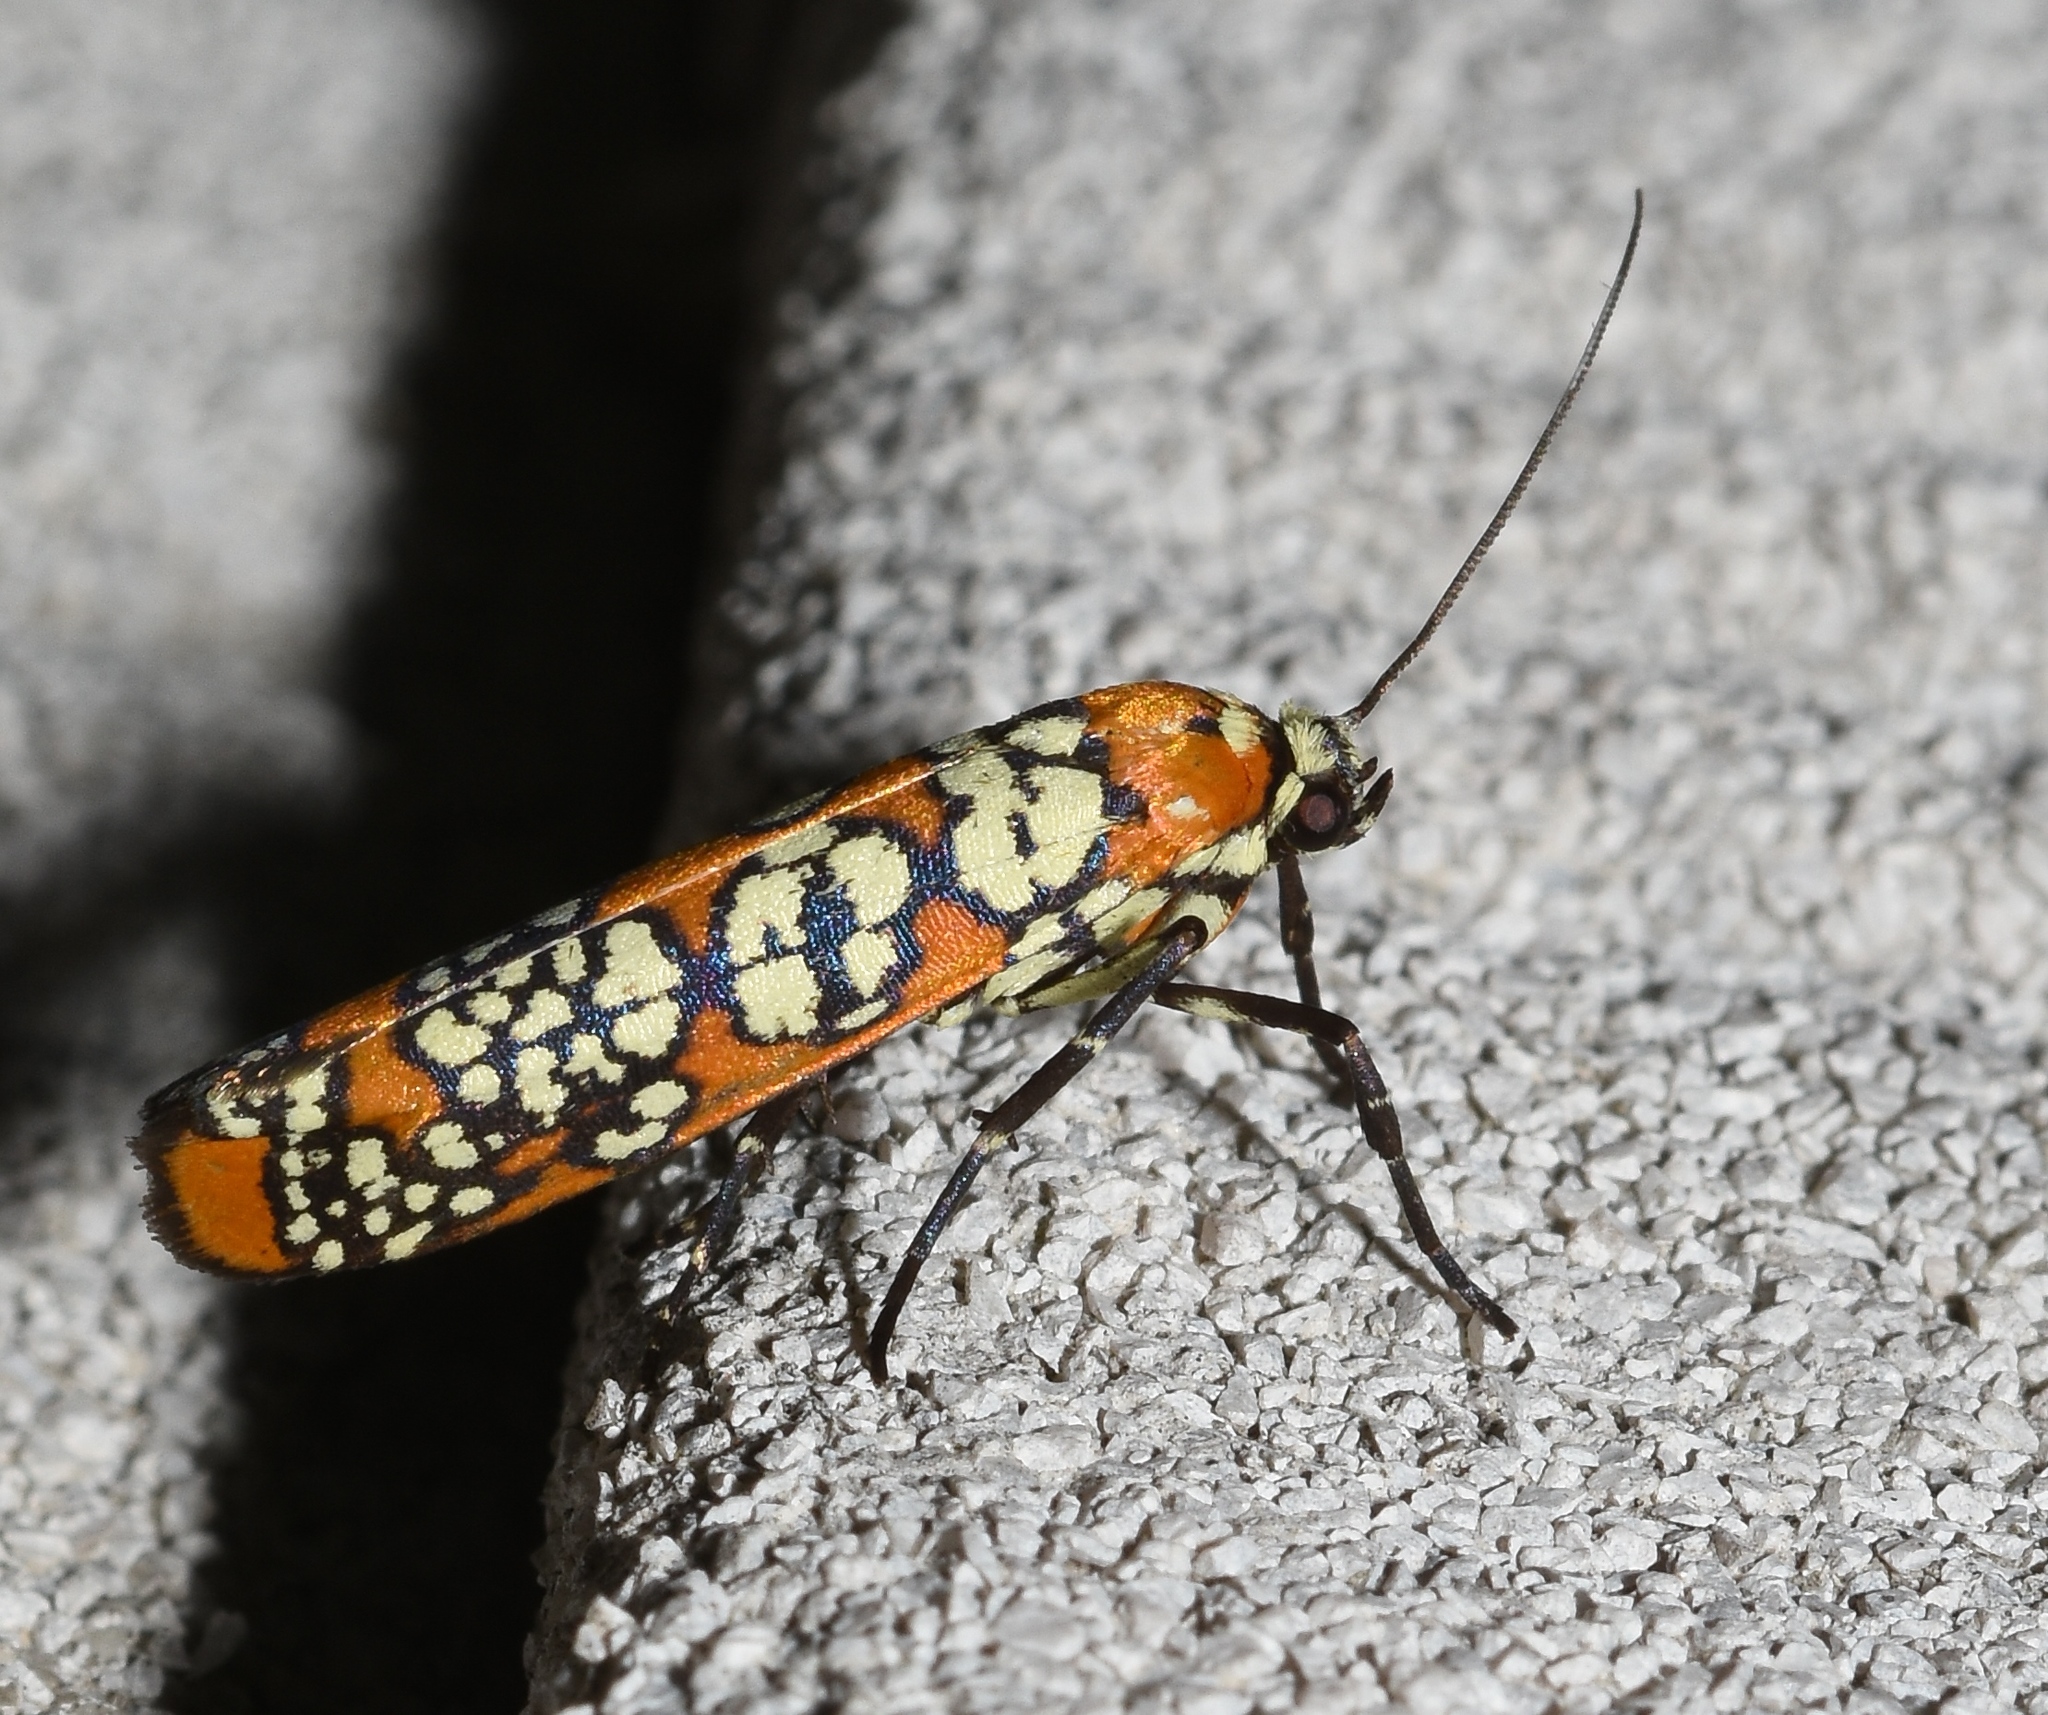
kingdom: Animalia
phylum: Arthropoda
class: Insecta
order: Lepidoptera
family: Attevidae
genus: Atteva
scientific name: Atteva punctella
